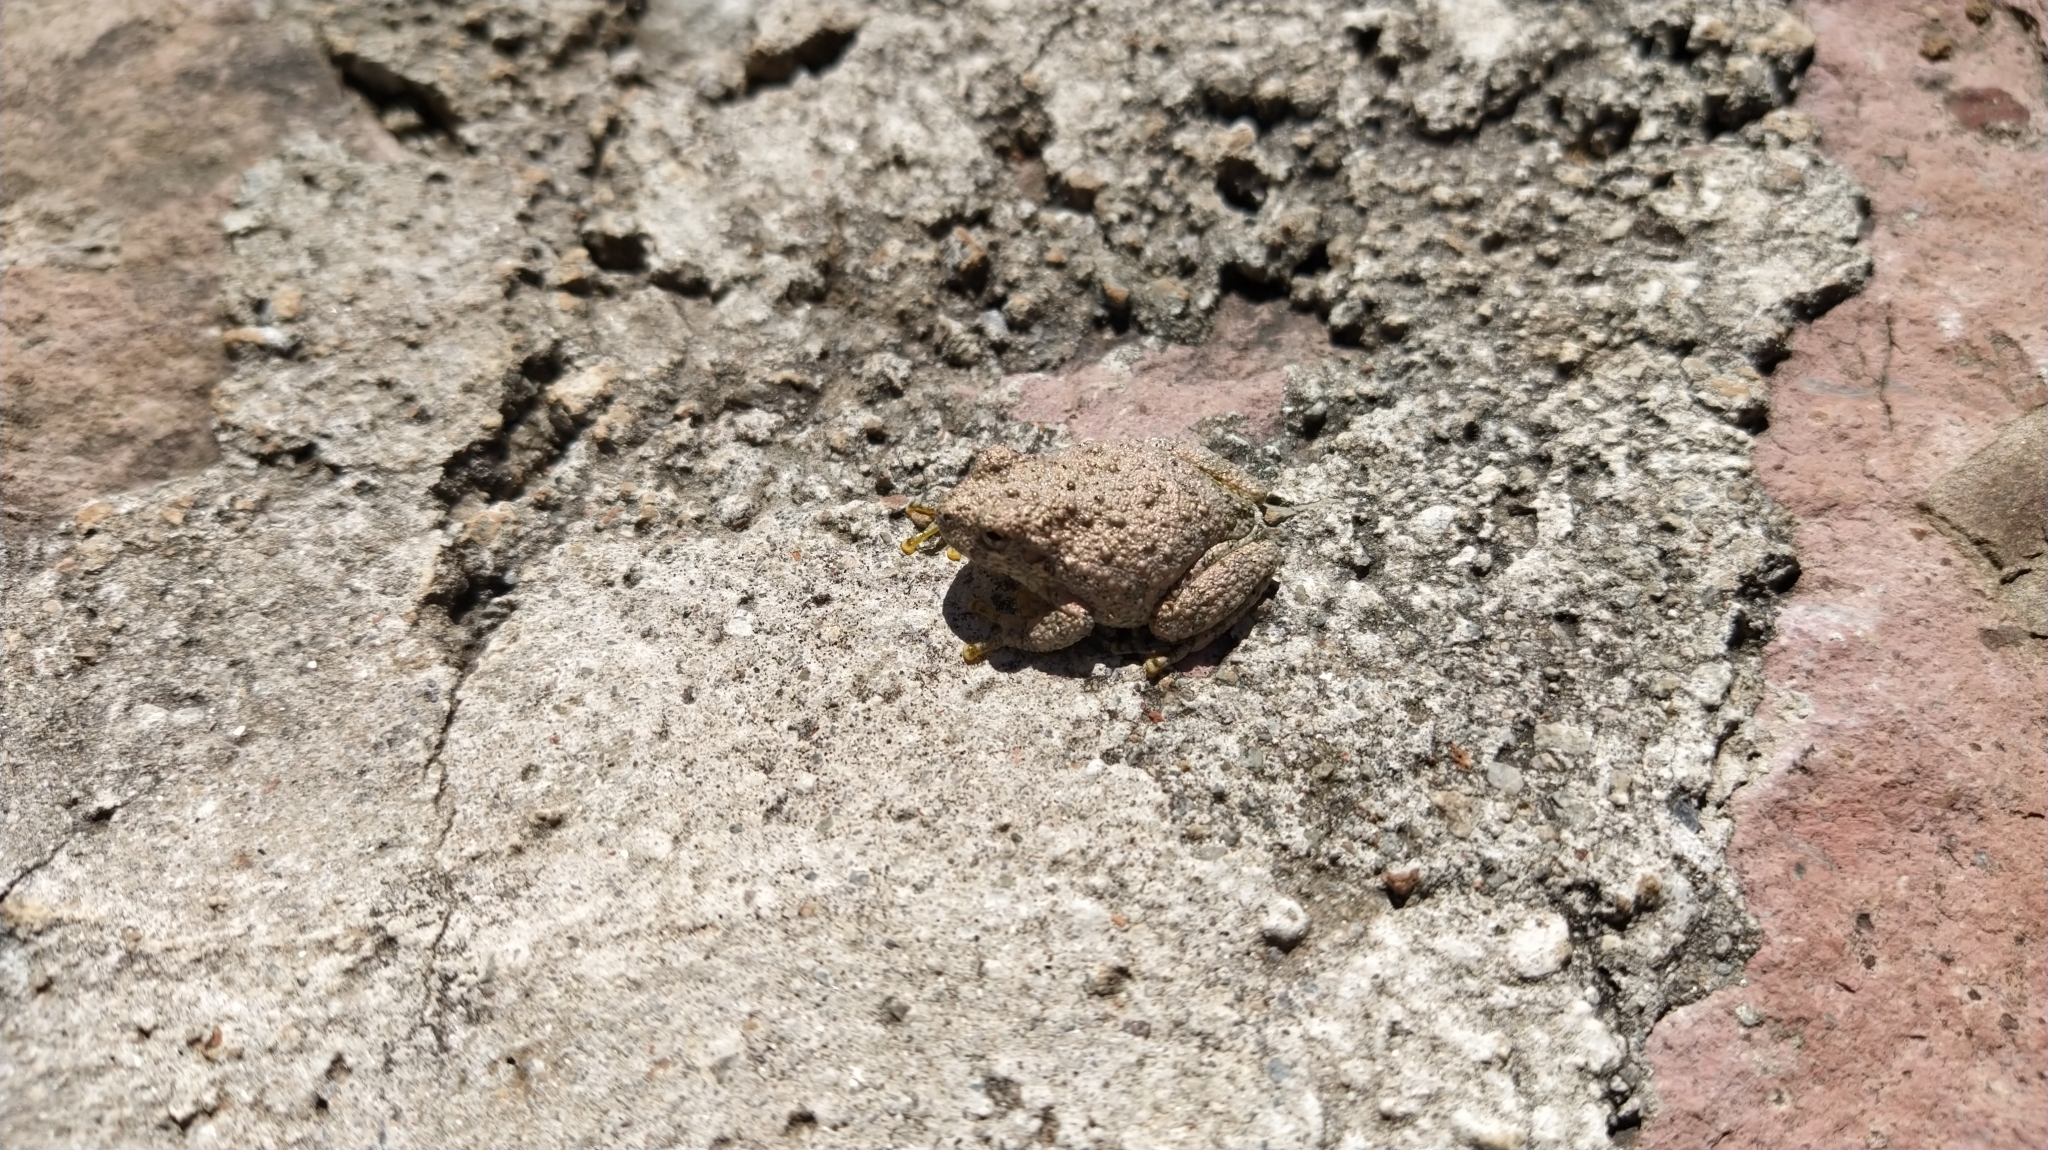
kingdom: Animalia
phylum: Chordata
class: Amphibia
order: Anura
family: Hylidae
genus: Dryophytes
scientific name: Dryophytes arenicolor
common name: Canyon treefrog
